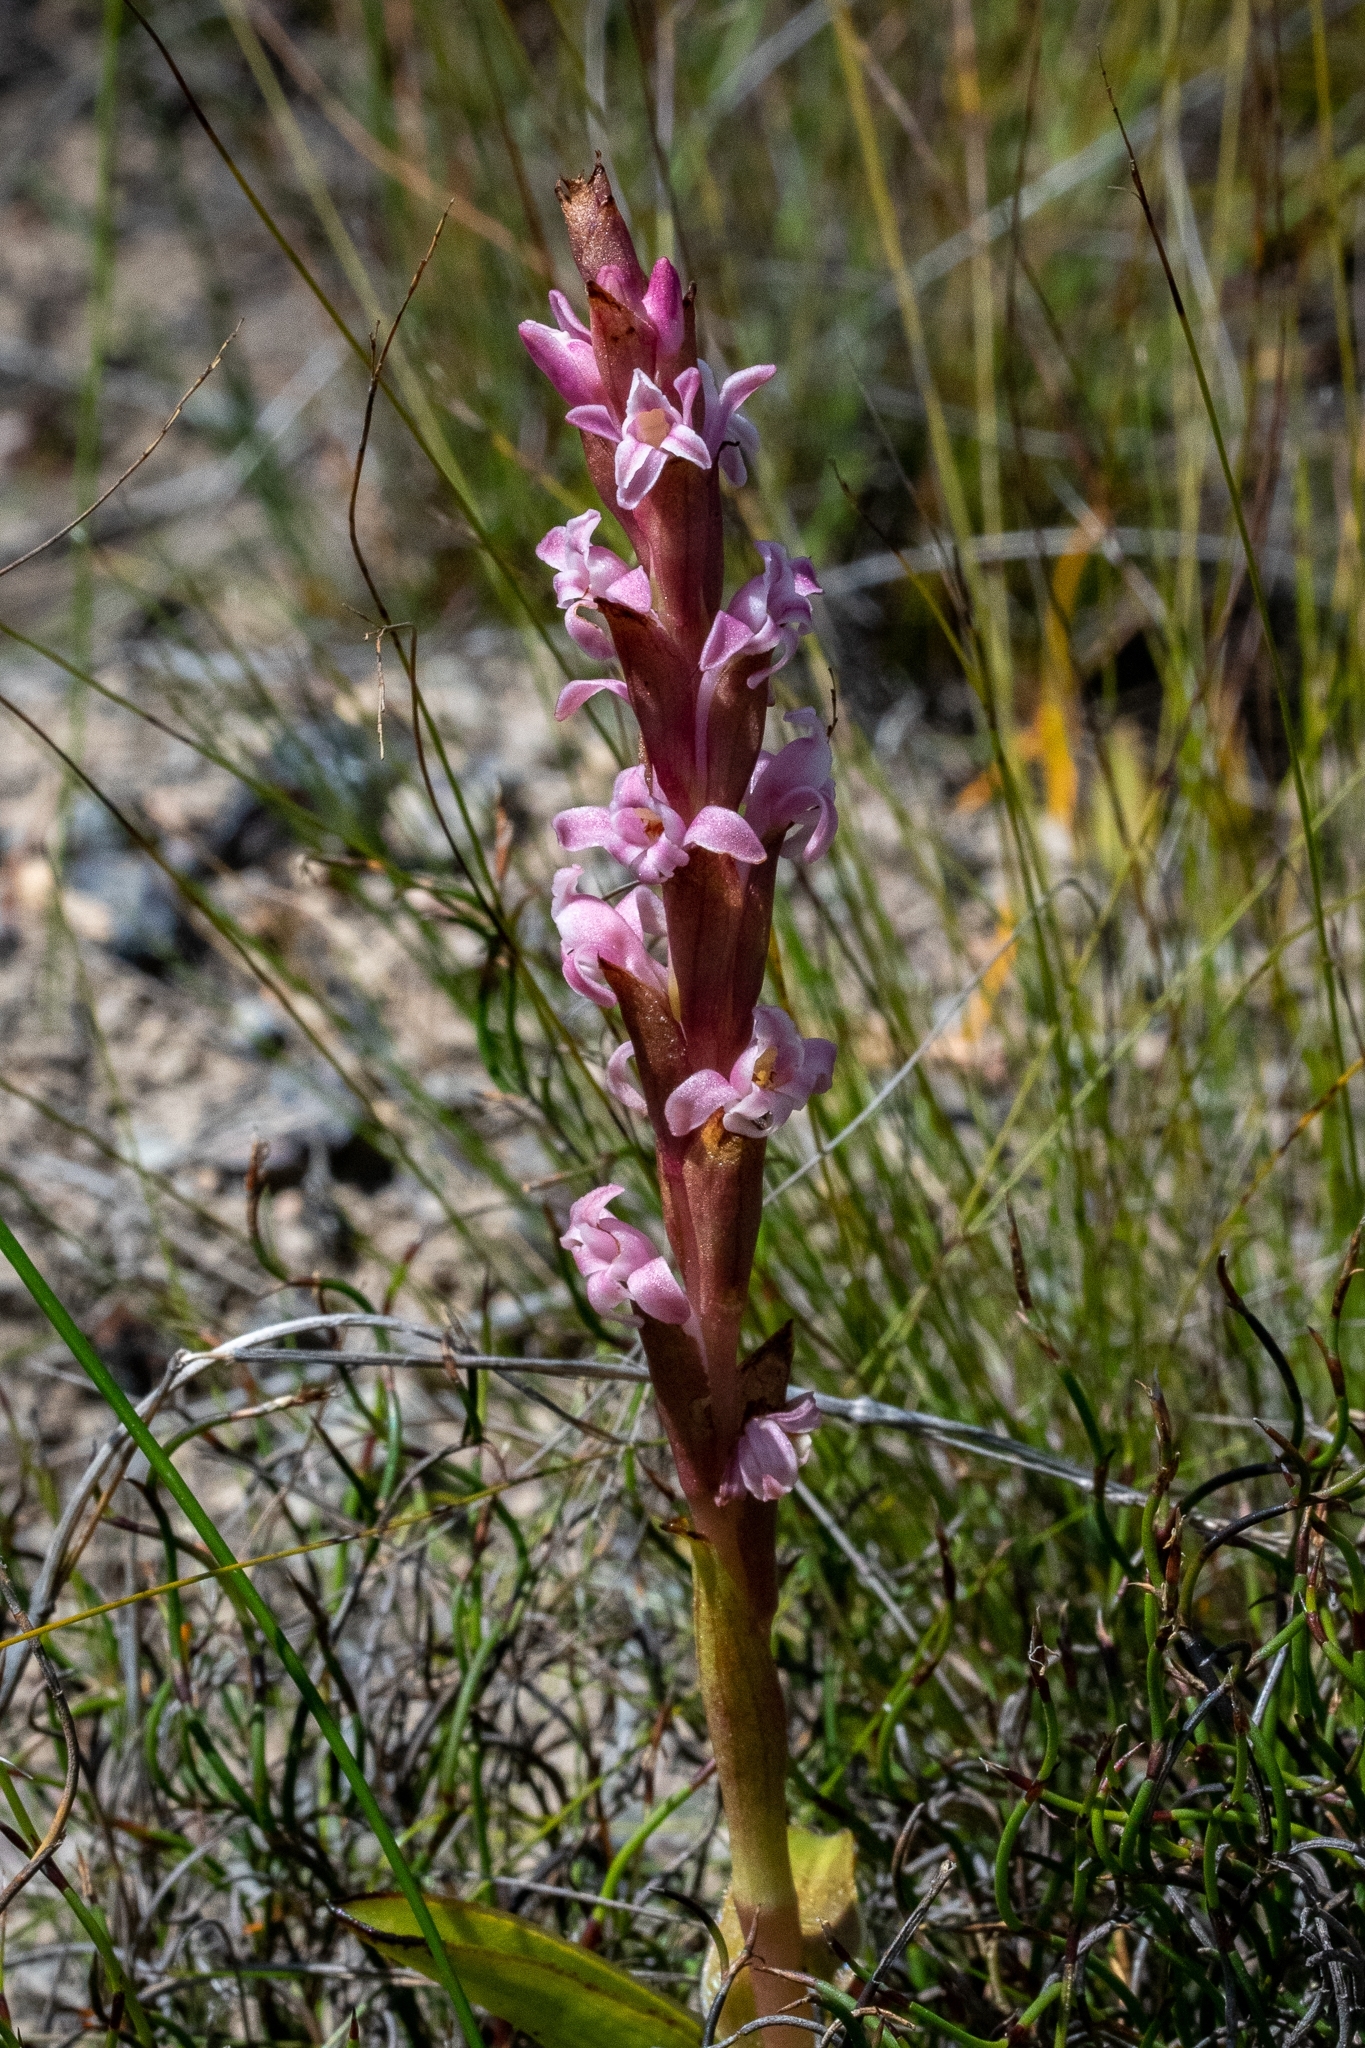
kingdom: Plantae
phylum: Tracheophyta
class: Liliopsida
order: Asparagales
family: Orchidaceae
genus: Satyrium
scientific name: Satyrium stenopetalum
